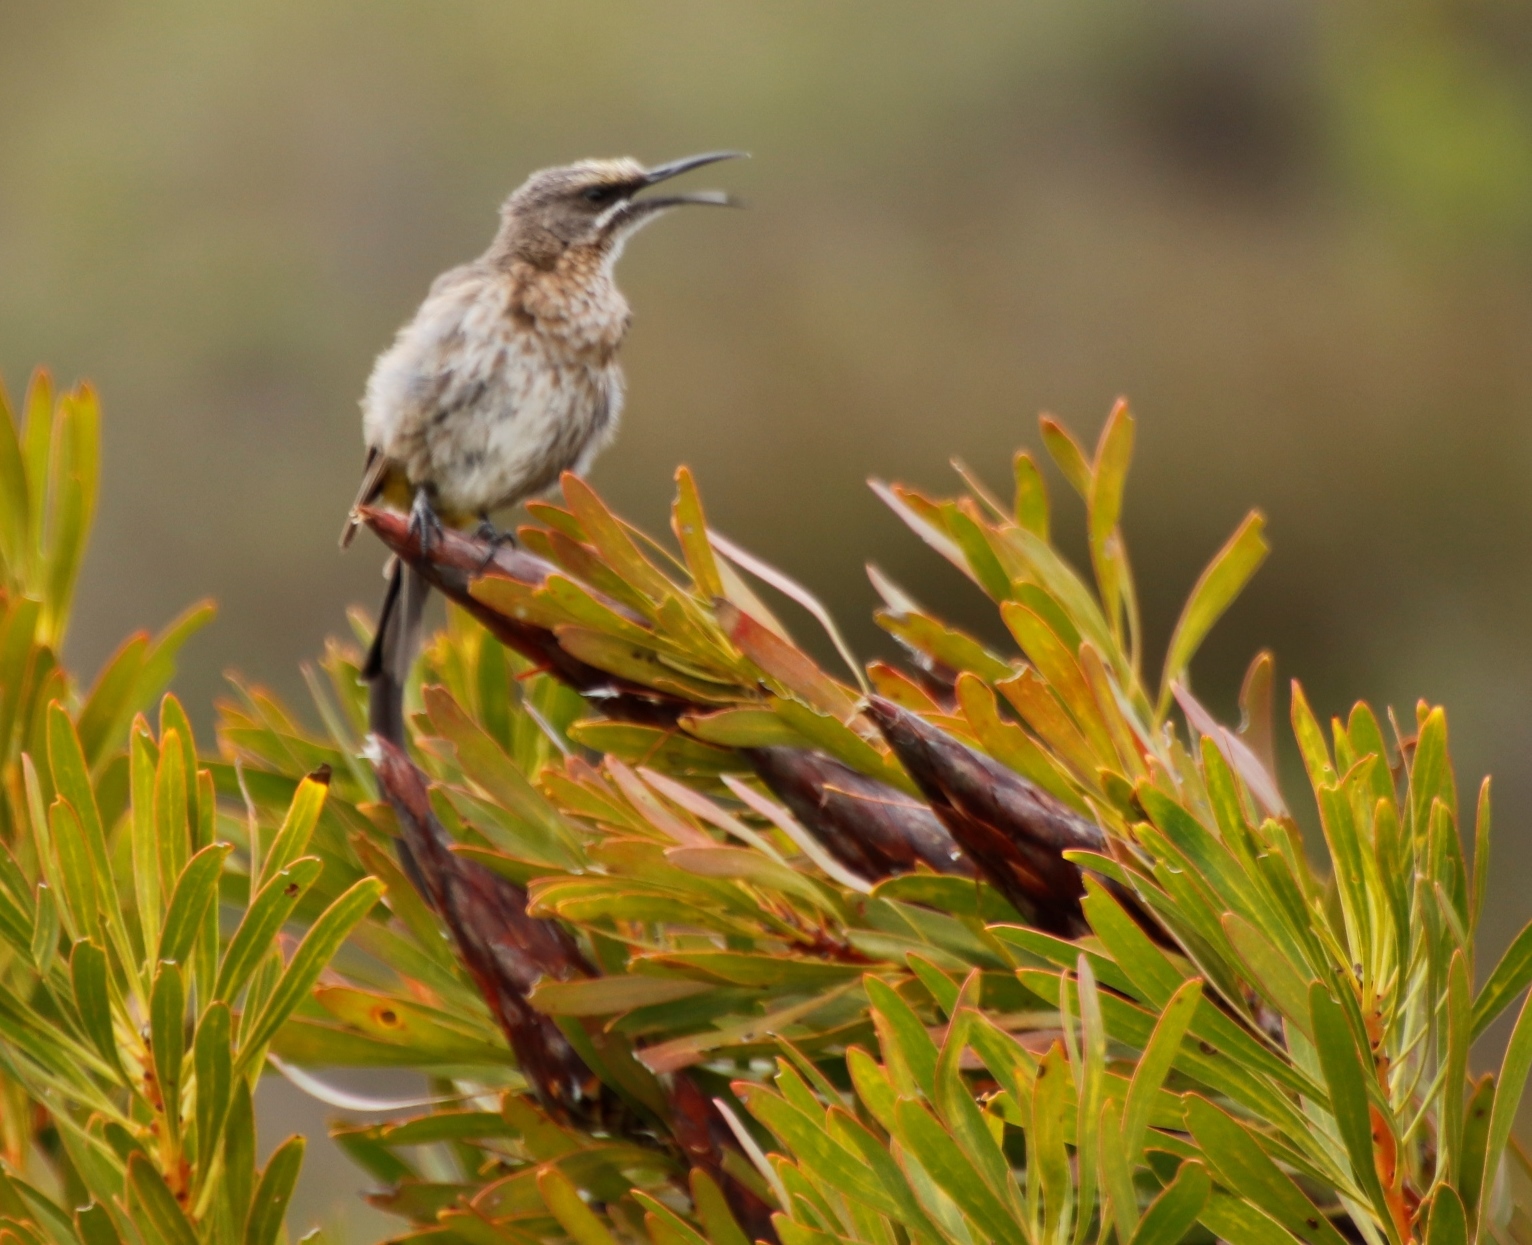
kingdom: Animalia
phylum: Chordata
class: Aves
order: Passeriformes
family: Promeropidae
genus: Promerops
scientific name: Promerops cafer
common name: Cape sugarbird
